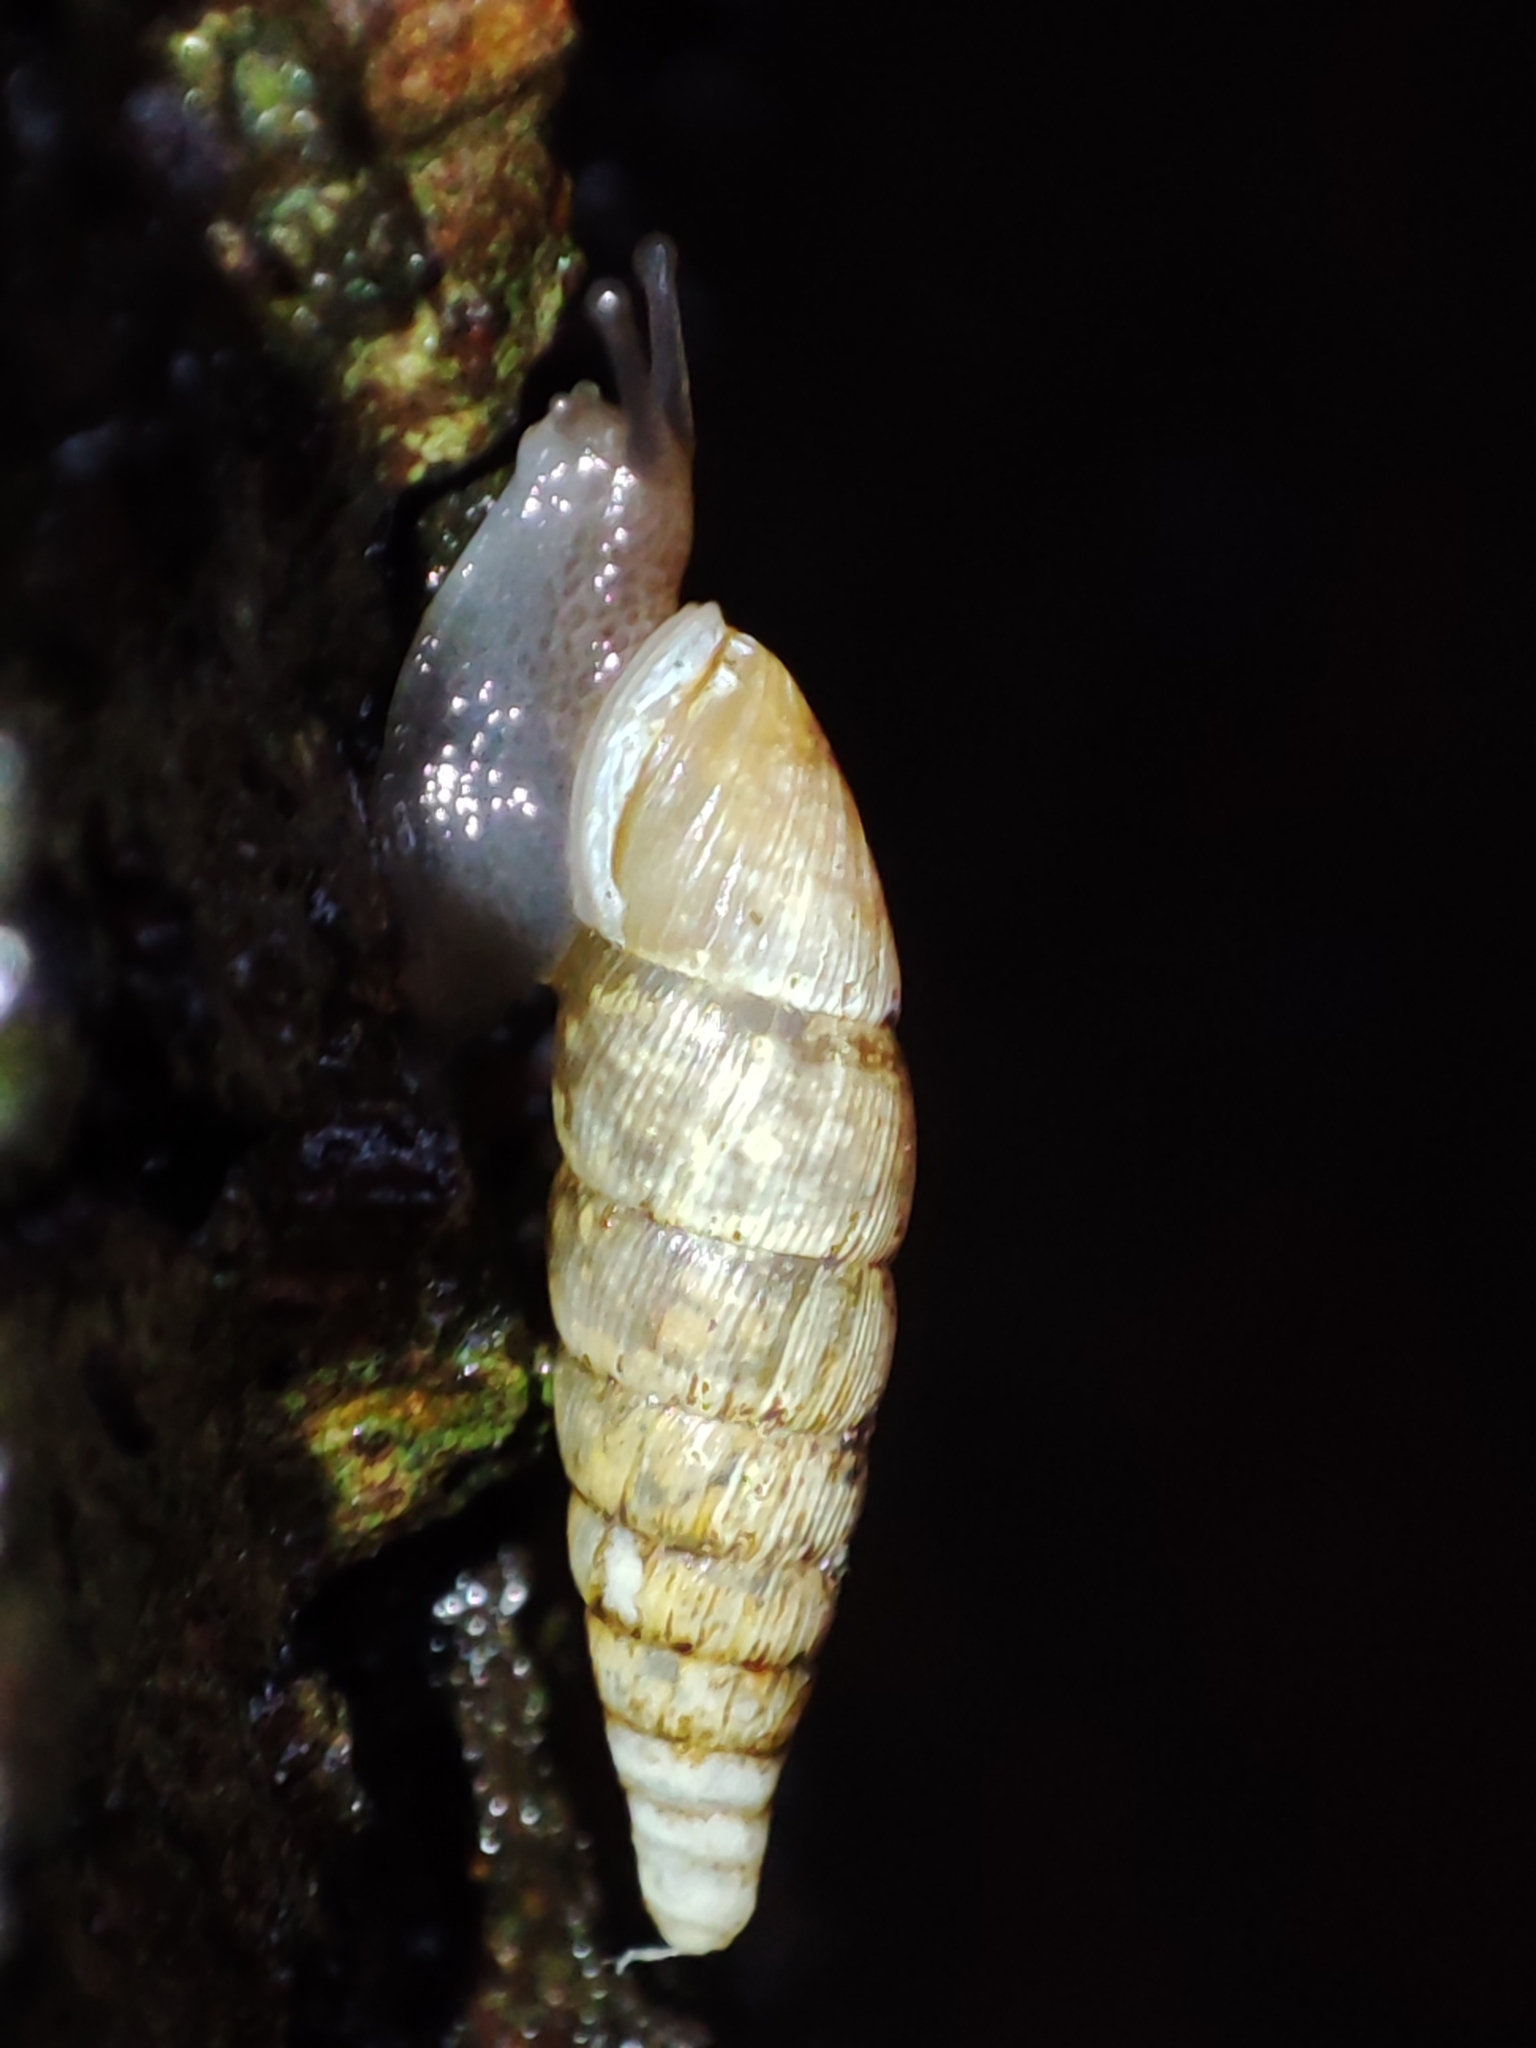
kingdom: Animalia
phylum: Mollusca
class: Gastropoda
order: Stylommatophora
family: Clausiliidae
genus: Cochlodina
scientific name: Cochlodina orthostoma
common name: Straightmouth door snail
